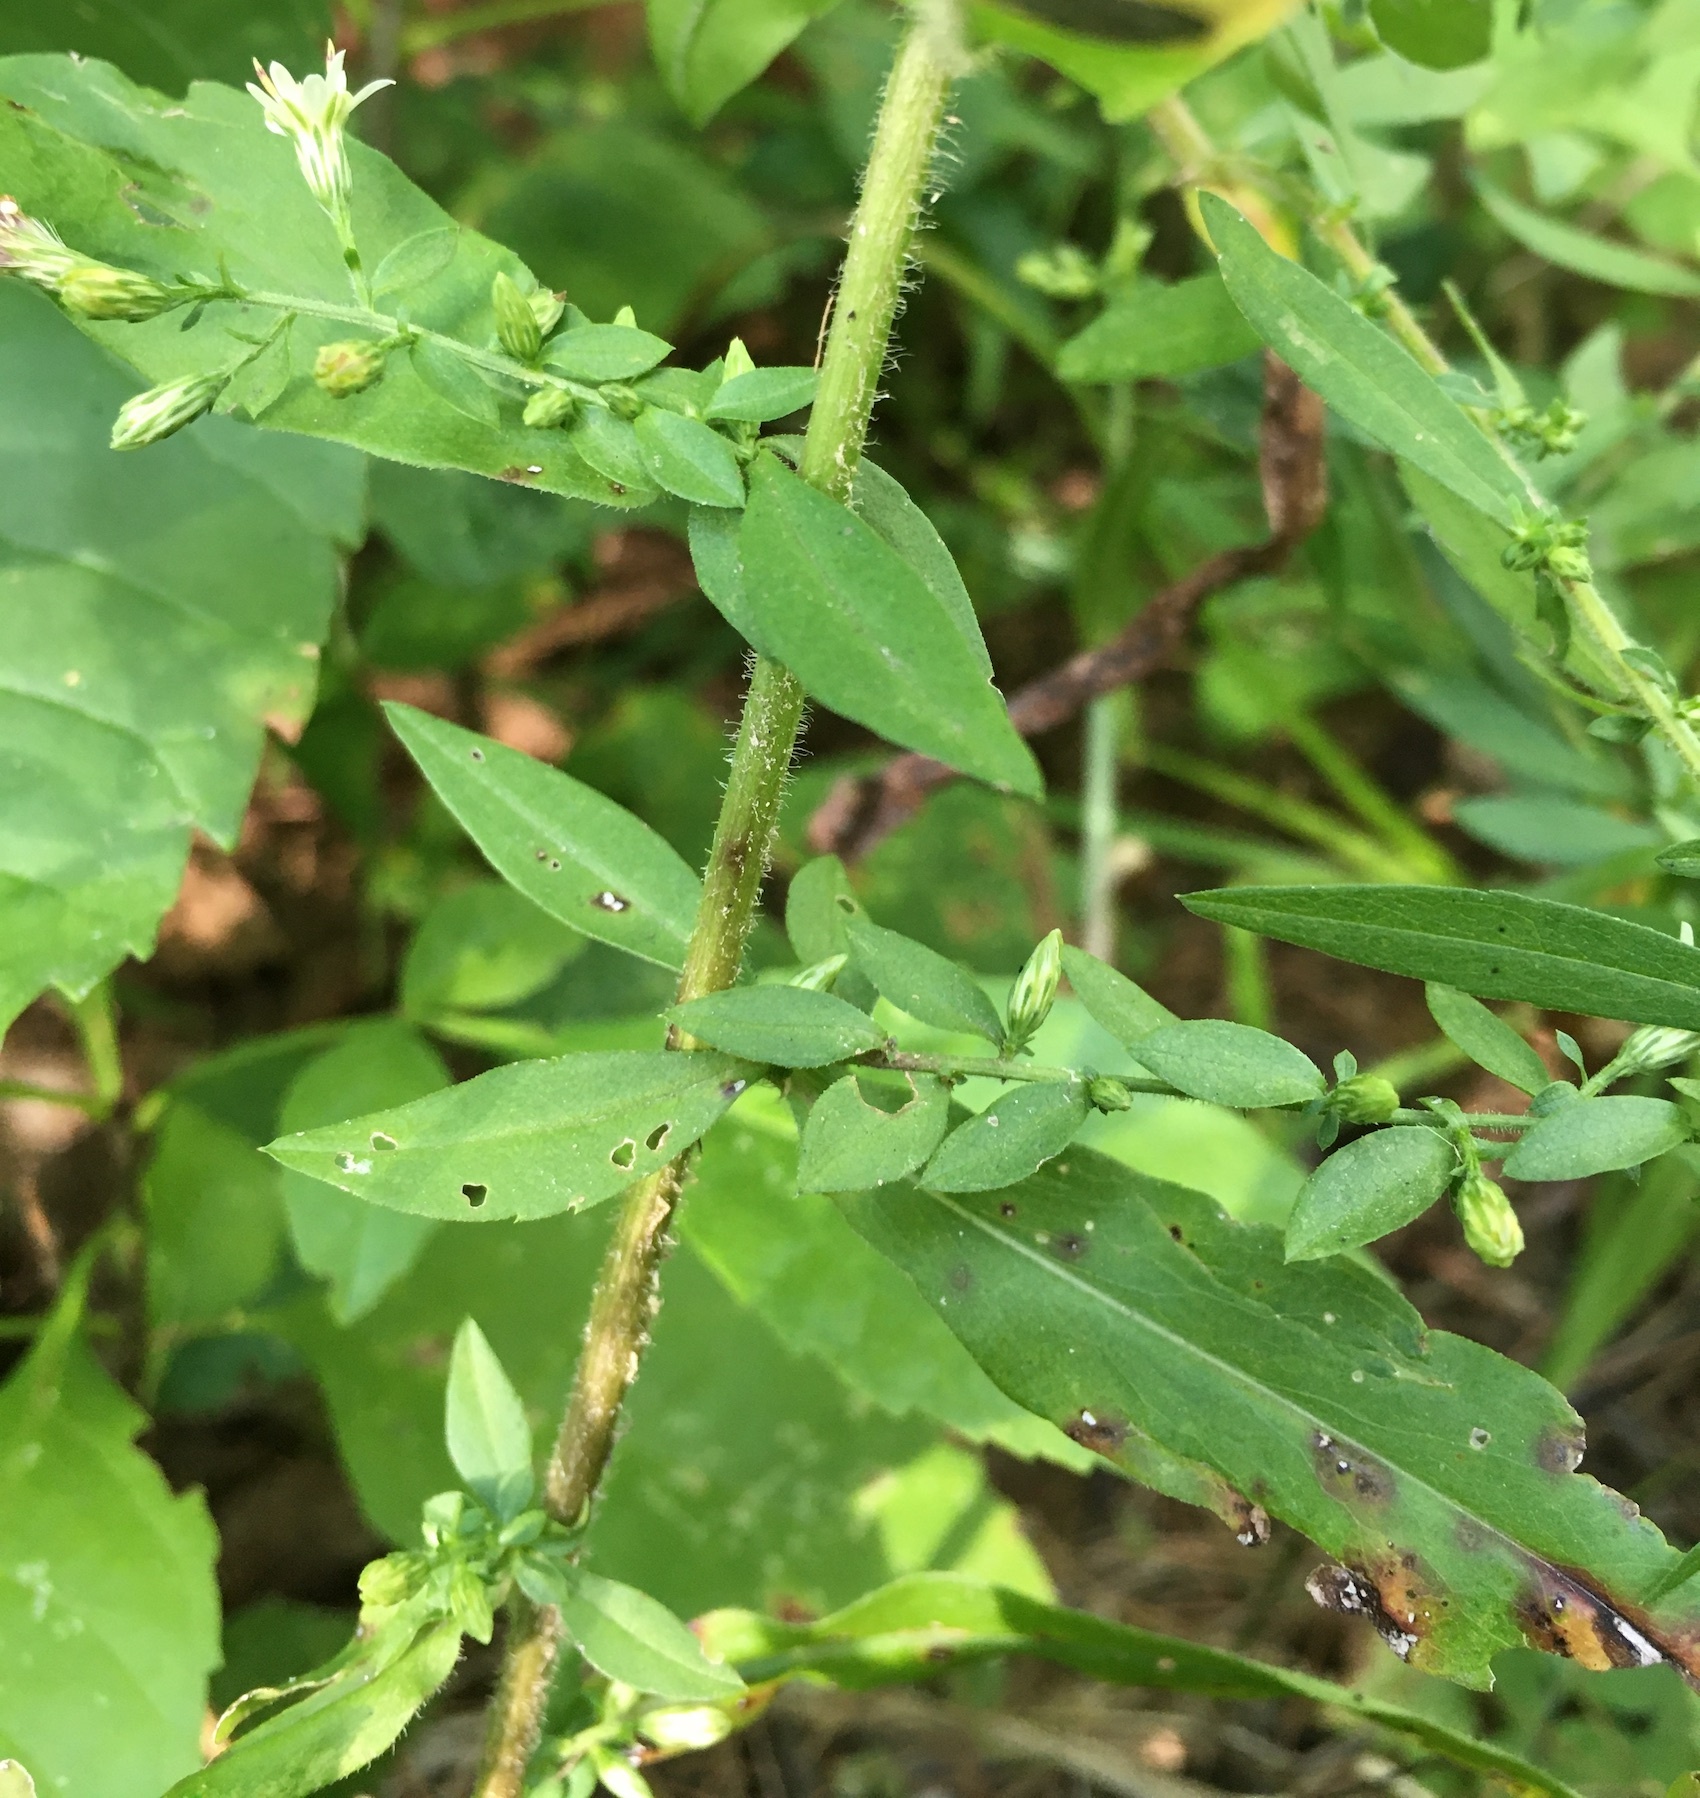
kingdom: Plantae
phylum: Tracheophyta
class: Magnoliopsida
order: Asterales
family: Asteraceae
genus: Symphyotrichum
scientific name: Symphyotrichum lateriflorum
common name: Calico aster
